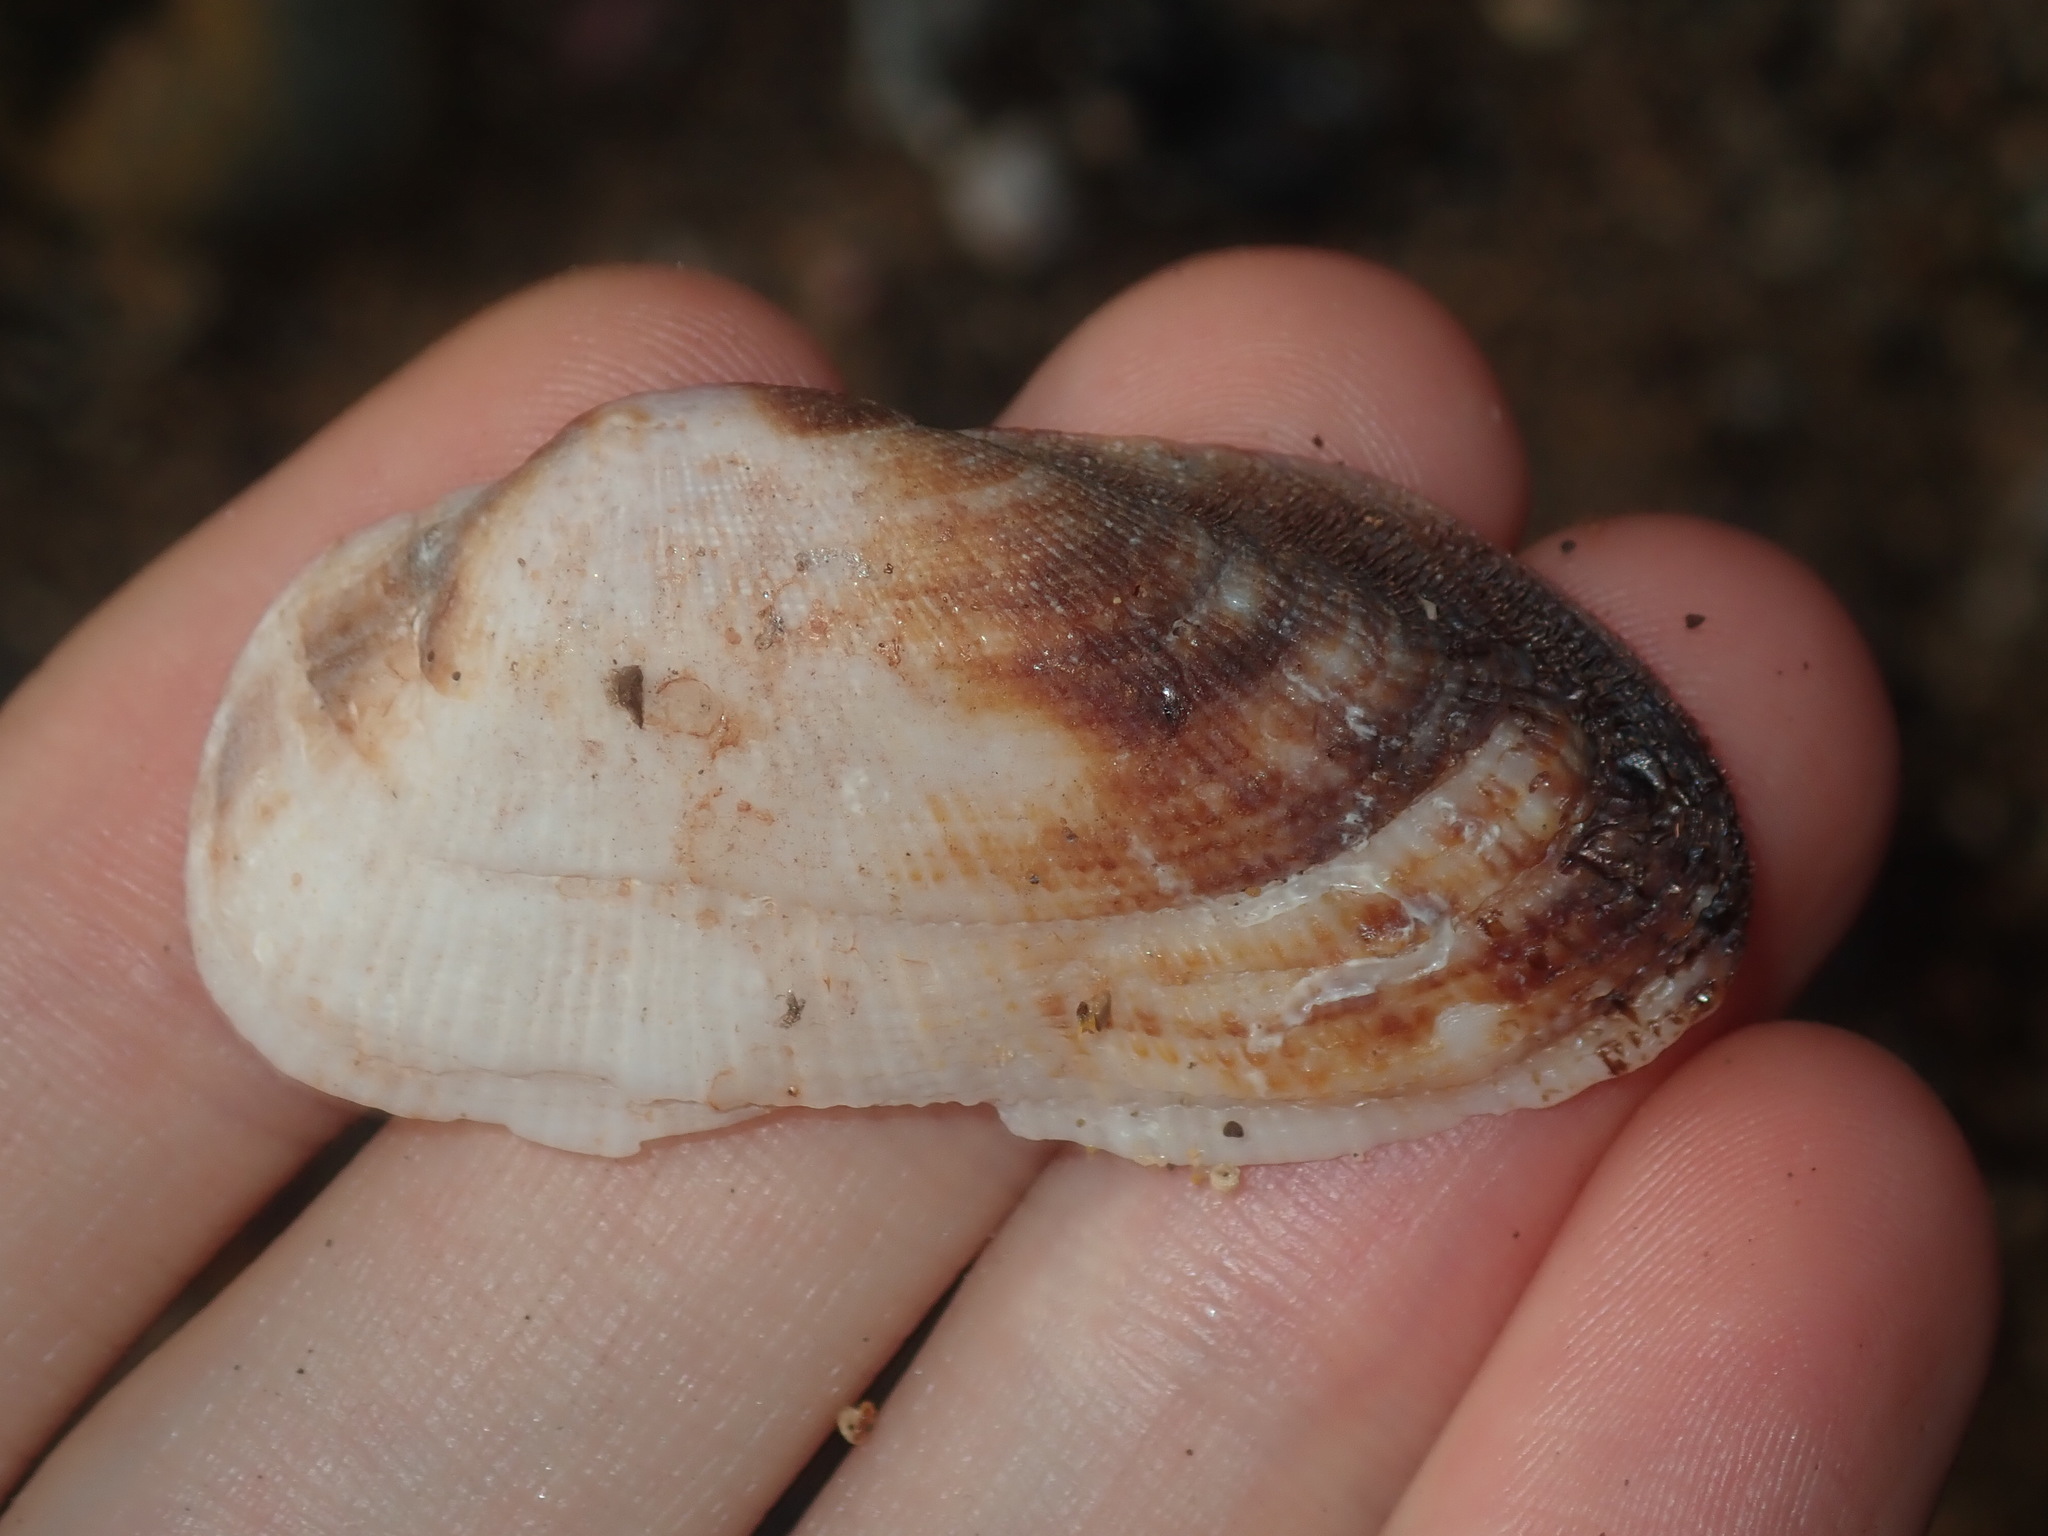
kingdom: Animalia
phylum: Mollusca
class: Bivalvia
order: Arcida
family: Arcidae
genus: Barbatia
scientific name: Barbatia pistachia
